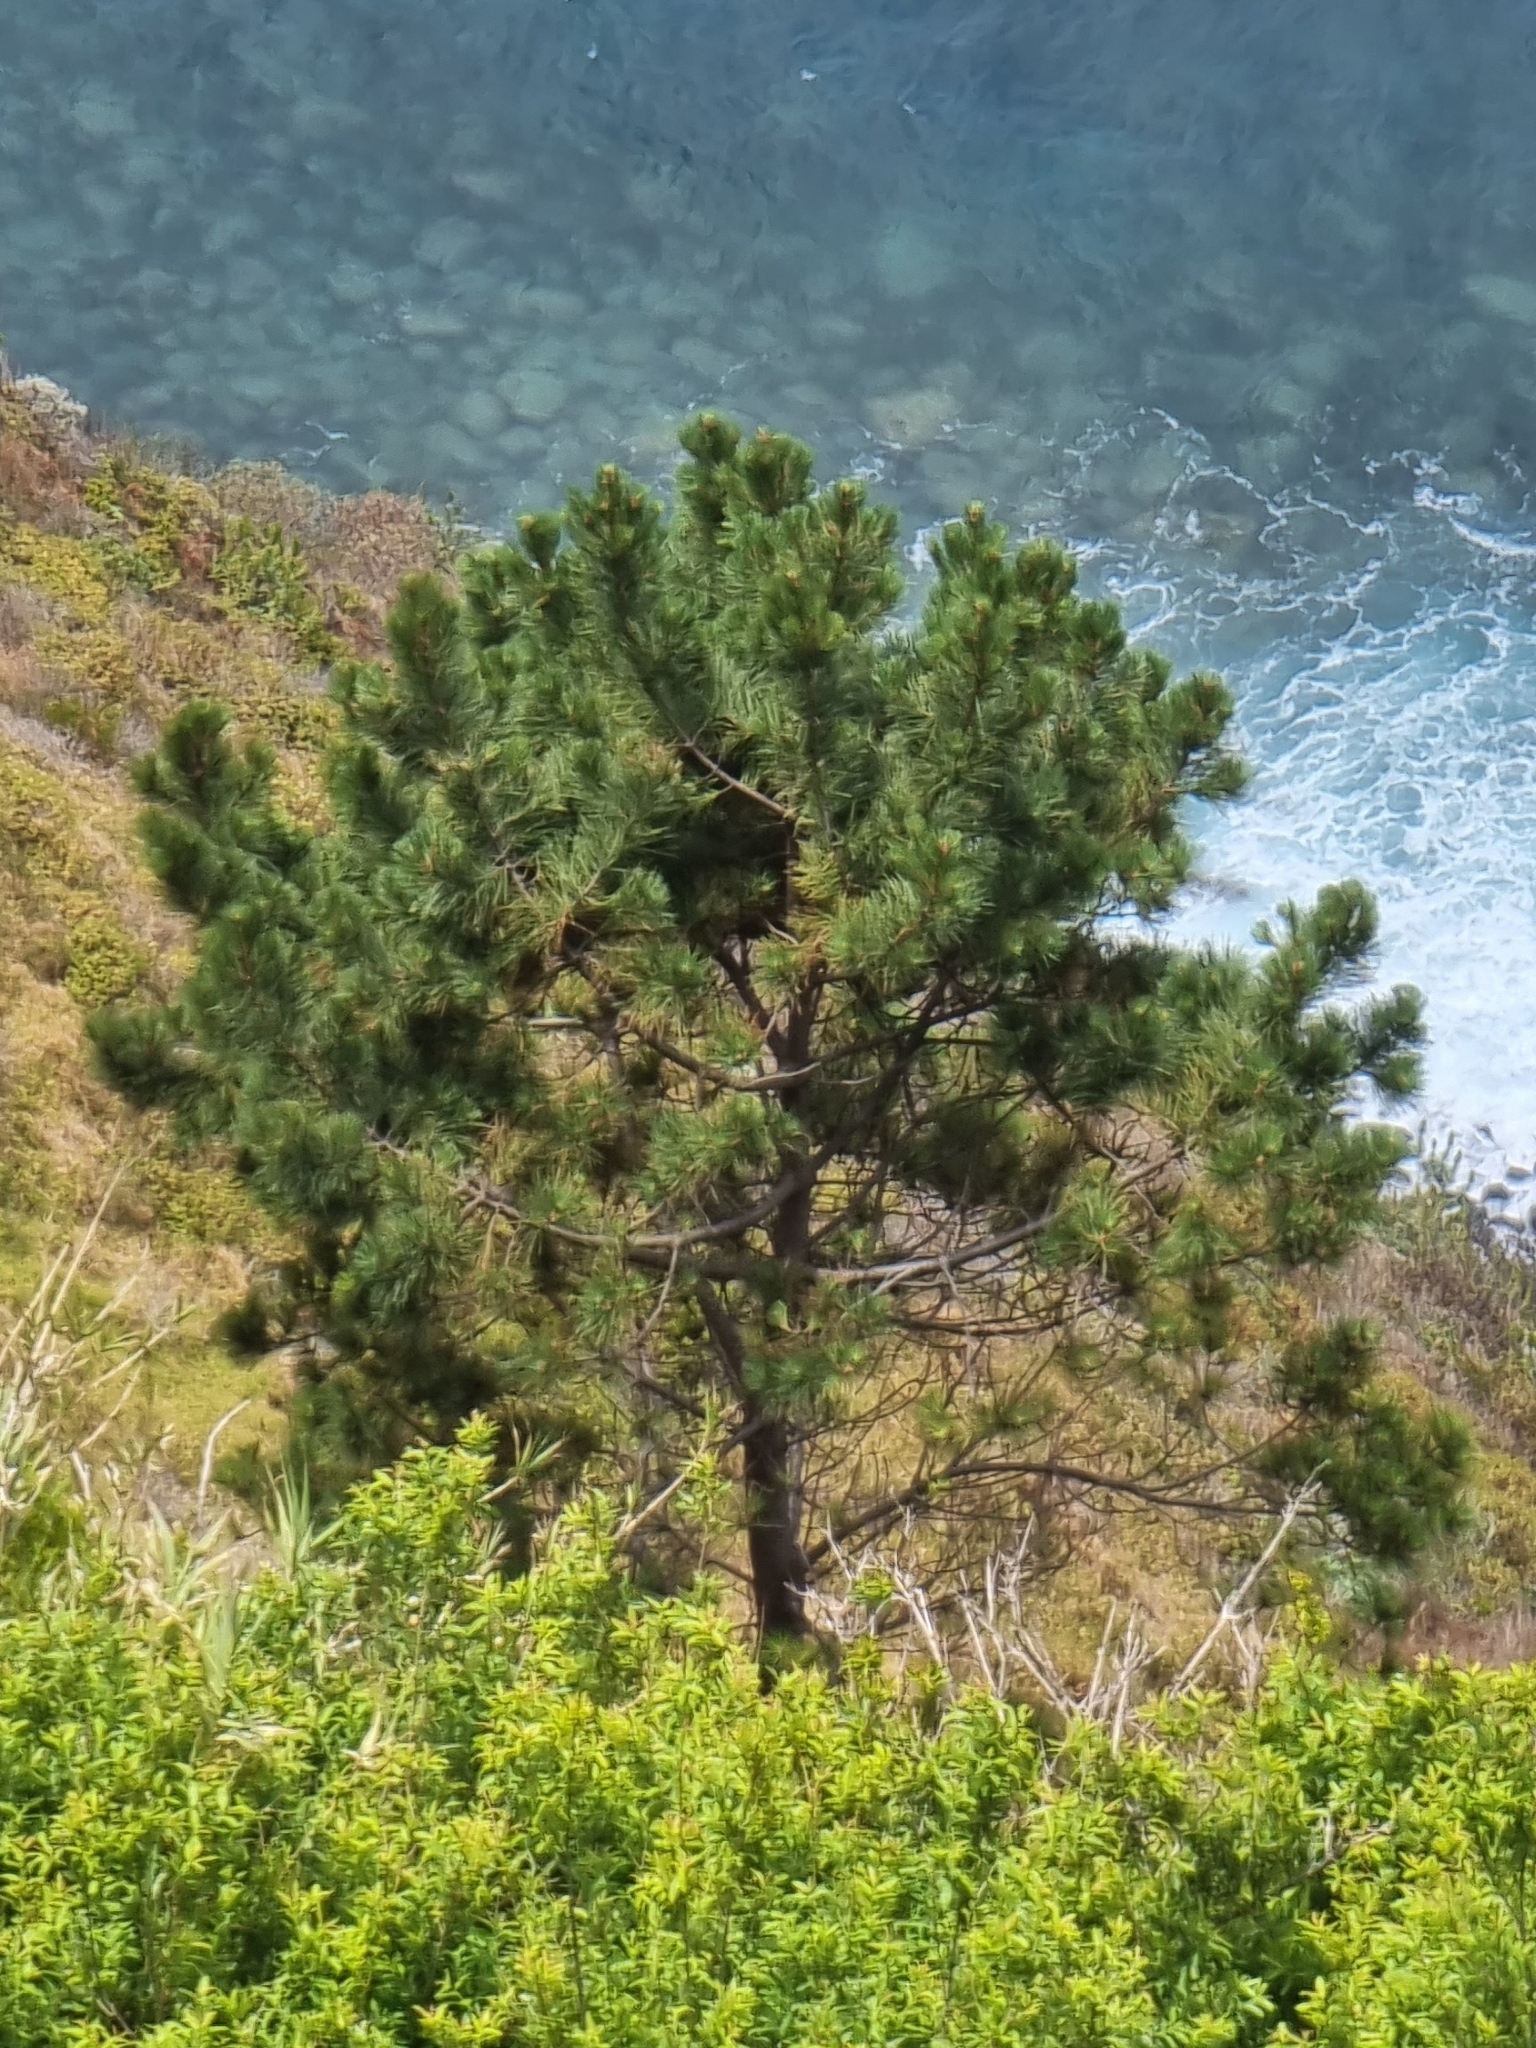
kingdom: Plantae
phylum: Tracheophyta
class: Pinopsida
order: Pinales
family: Pinaceae
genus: Pinus
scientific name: Pinus pinaster
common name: Maritime pine
